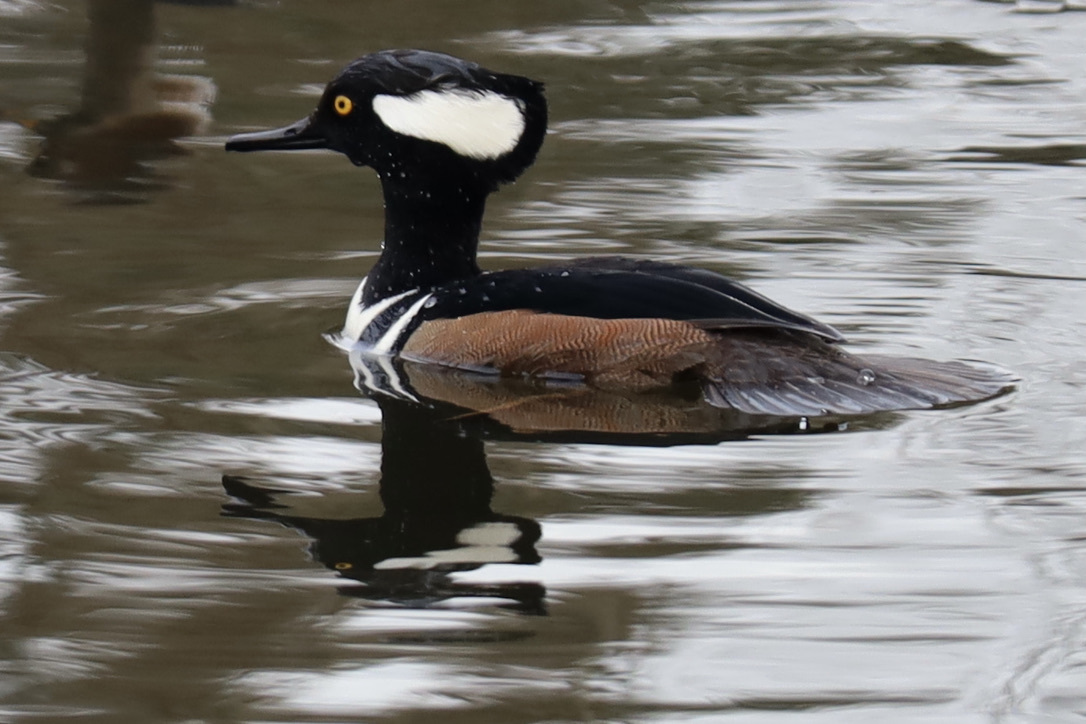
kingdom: Animalia
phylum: Chordata
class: Aves
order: Anseriformes
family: Anatidae
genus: Lophodytes
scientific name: Lophodytes cucullatus
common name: Hooded merganser
